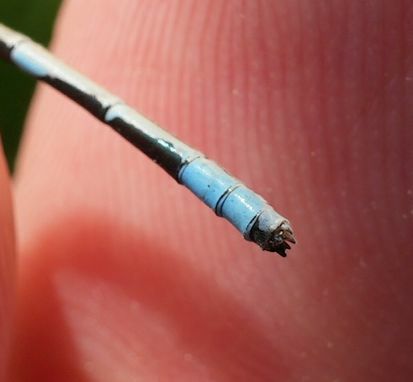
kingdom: Animalia
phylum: Arthropoda
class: Insecta
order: Odonata
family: Coenagrionidae
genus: Enallagma
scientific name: Enallagma ebrium
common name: Marsh bluet
